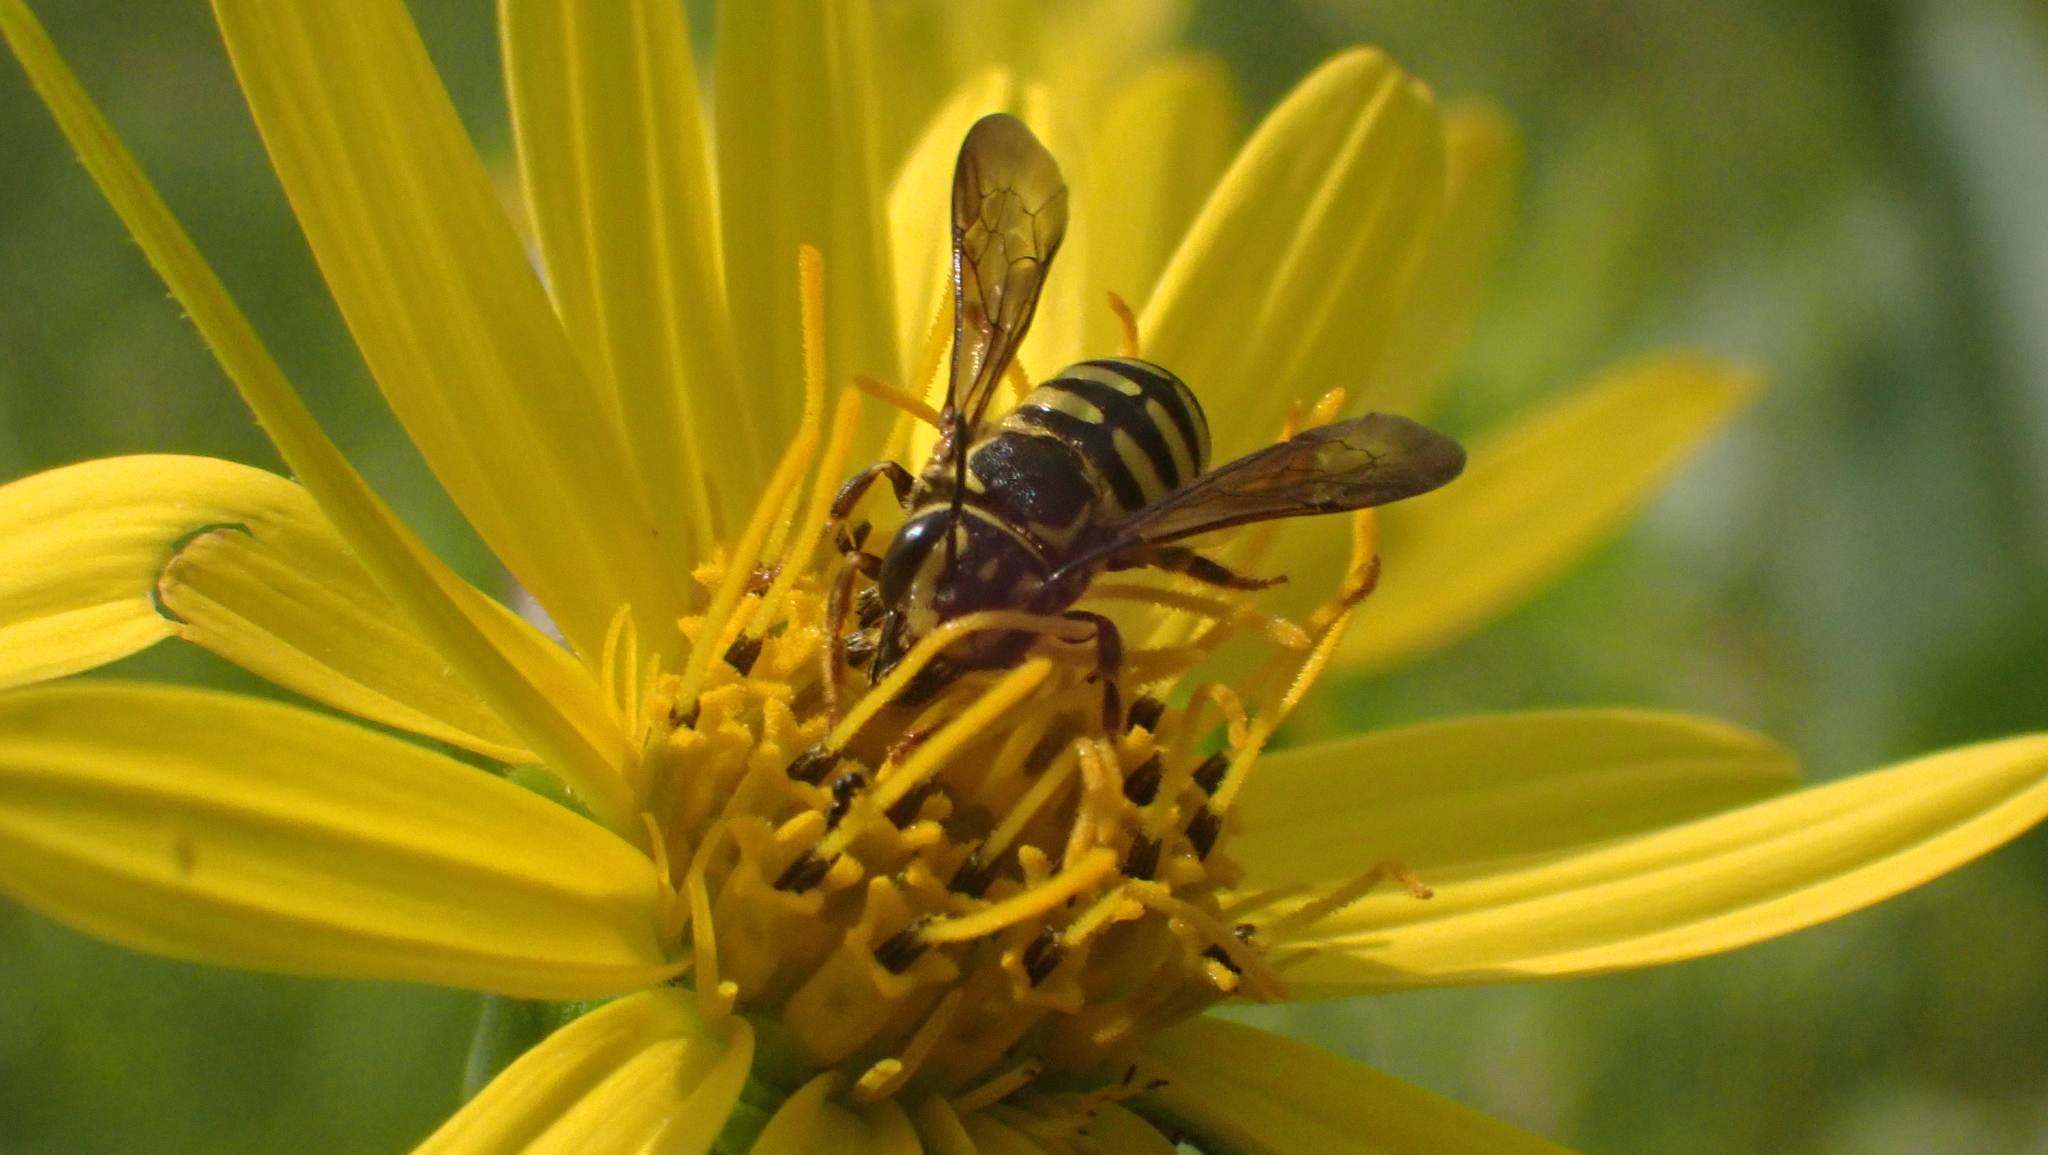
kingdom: Animalia
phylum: Arthropoda
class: Insecta
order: Hymenoptera
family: Megachilidae
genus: Paranthidium
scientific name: Paranthidium jugatorium
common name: Sunflower burrowing-resin bee
